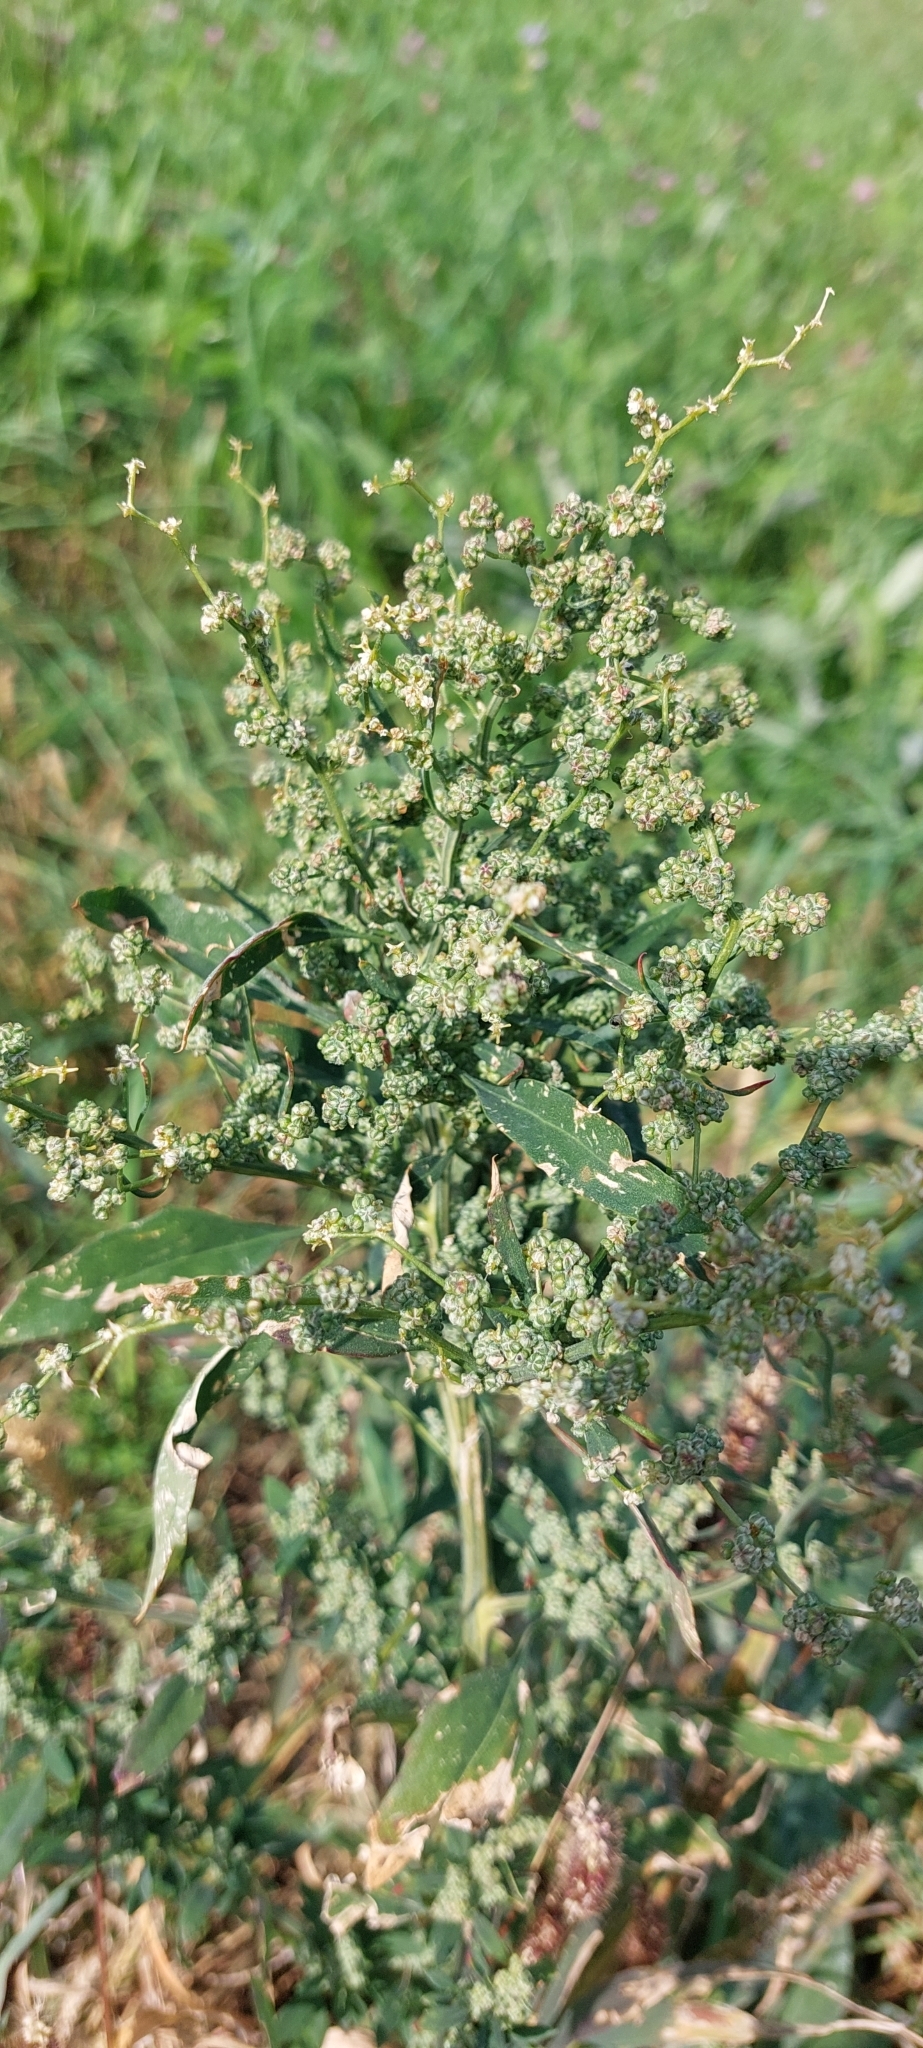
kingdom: Plantae
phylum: Tracheophyta
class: Magnoliopsida
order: Caryophyllales
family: Amaranthaceae
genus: Chenopodium
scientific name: Chenopodium album
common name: Fat-hen
